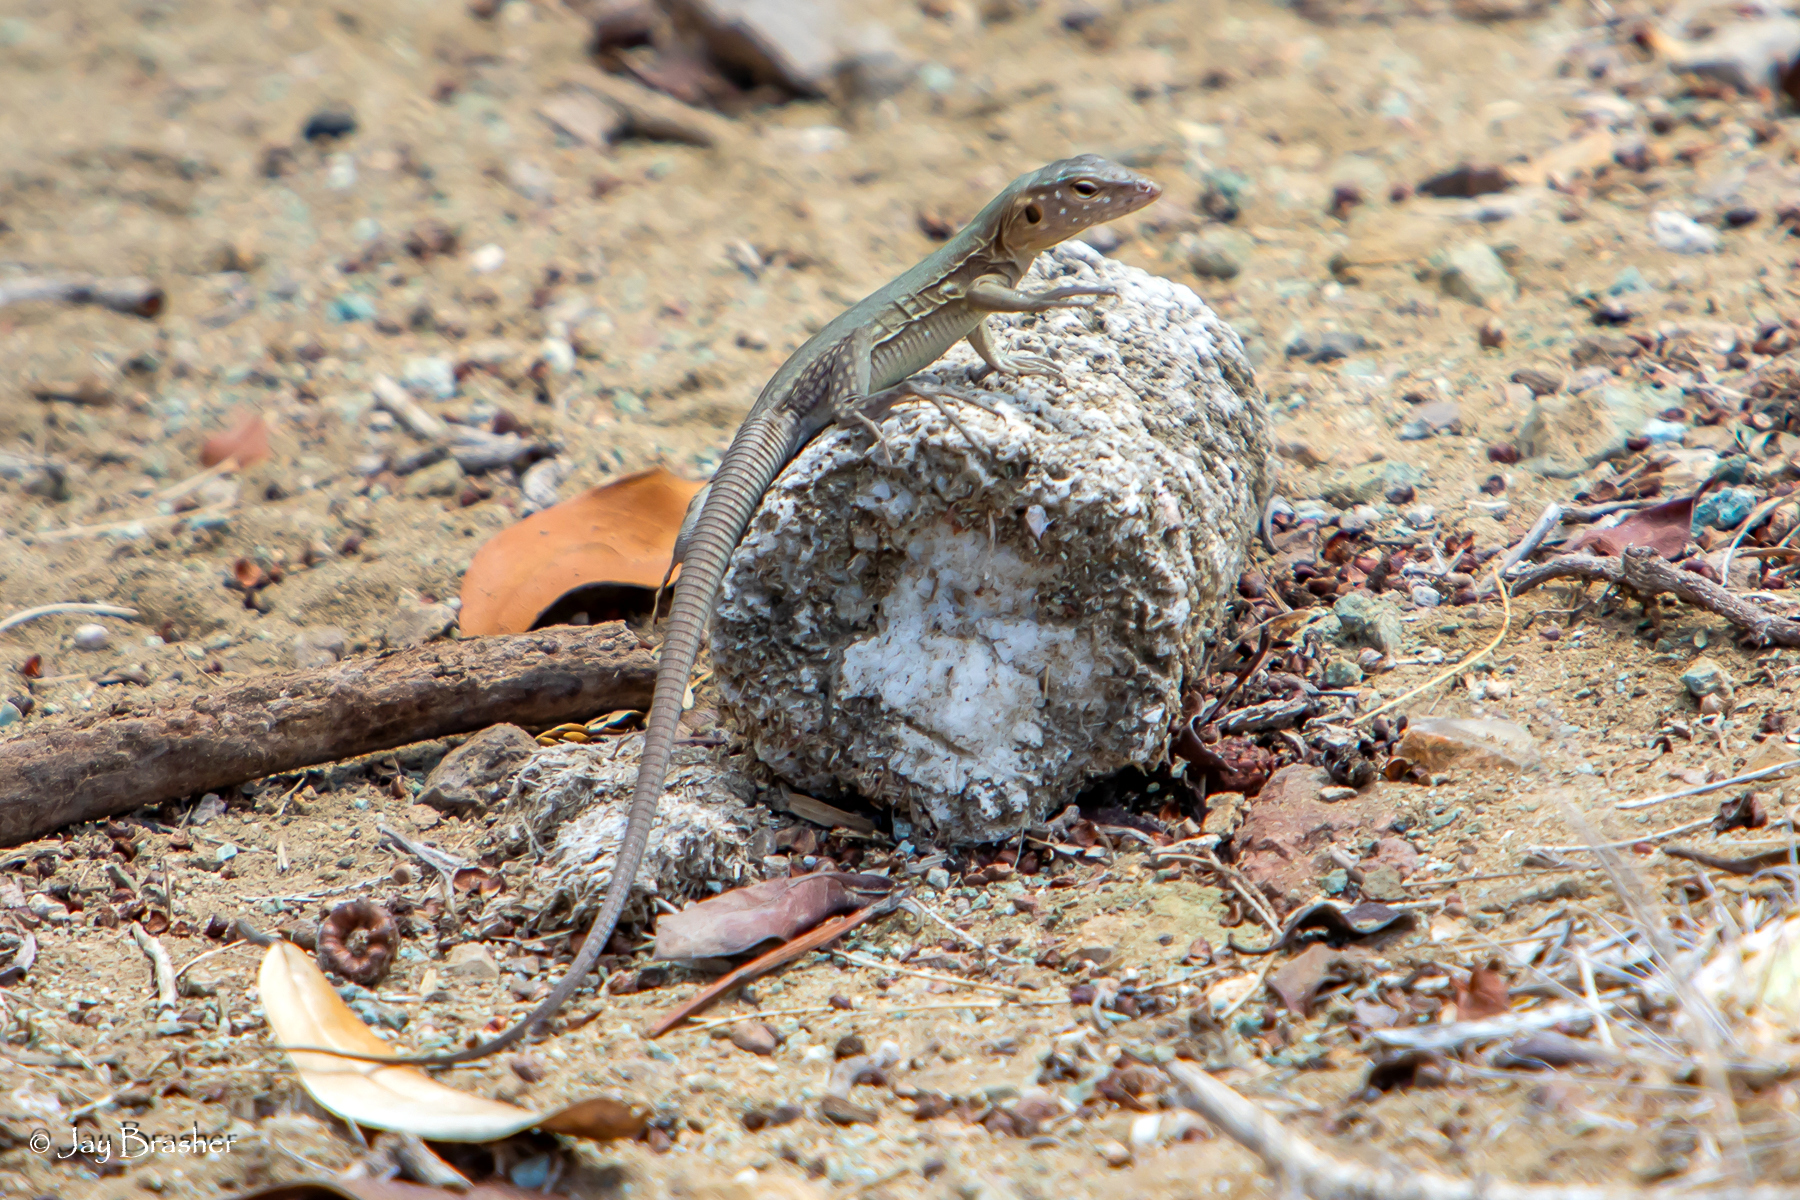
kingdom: Animalia
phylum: Chordata
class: Squamata
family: Teiidae
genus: Cnemidophorus
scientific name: Cnemidophorus ruthveni
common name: Bonaire whiptail
